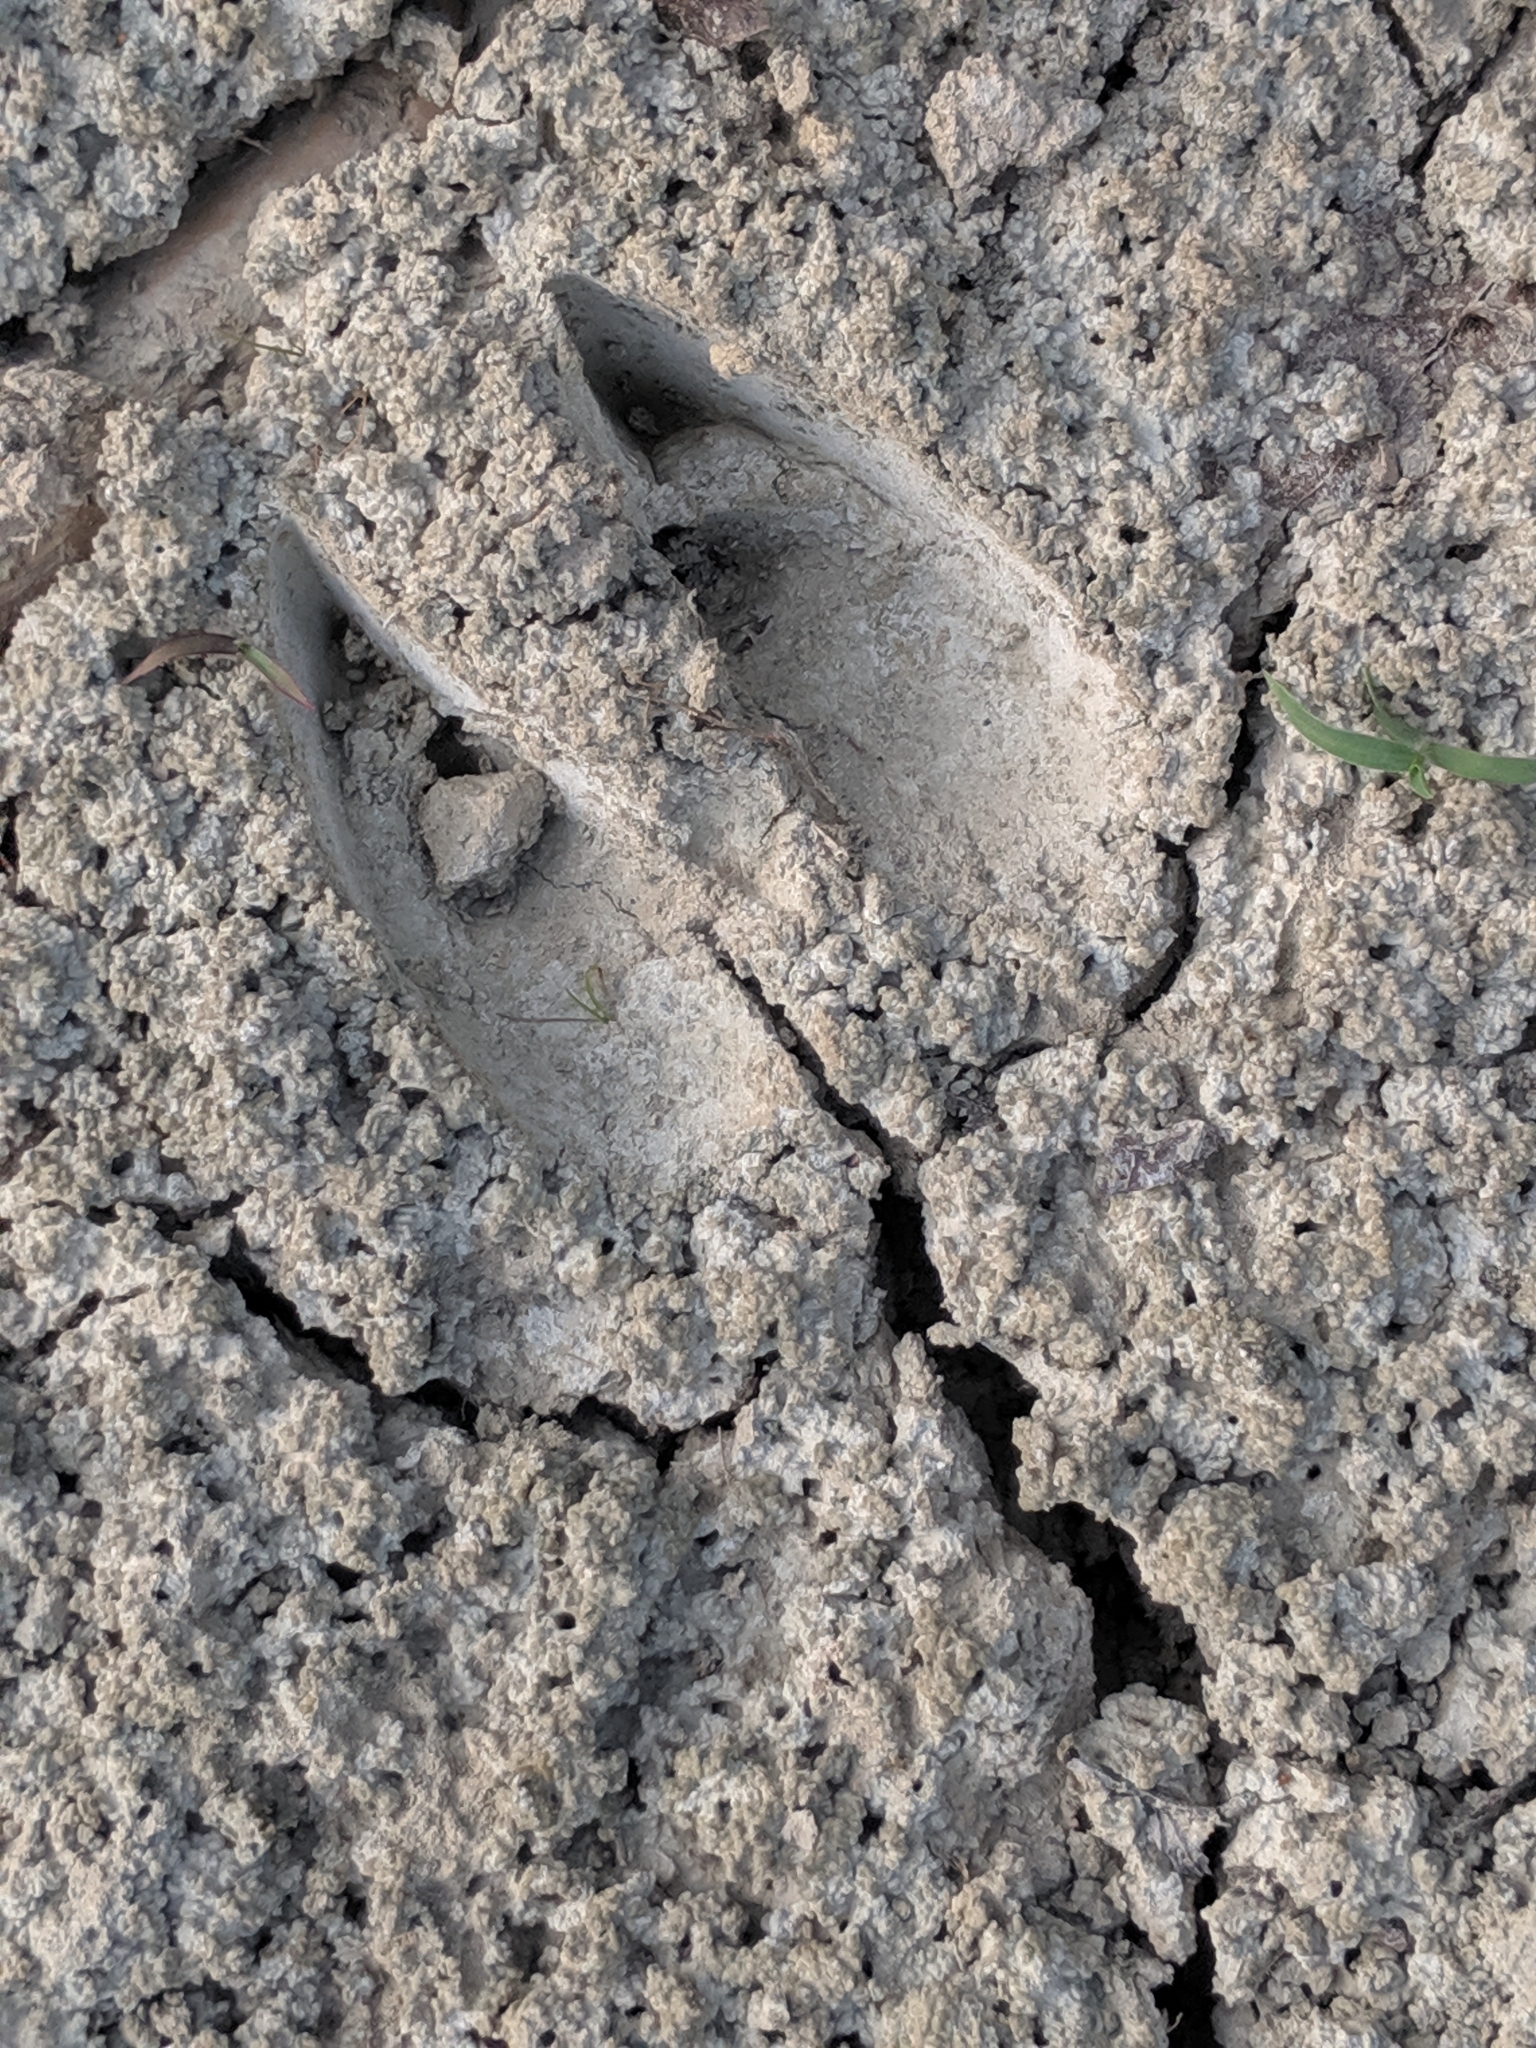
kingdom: Animalia
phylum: Chordata
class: Mammalia
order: Artiodactyla
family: Cervidae
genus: Odocoileus
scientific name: Odocoileus virginianus
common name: White-tailed deer
